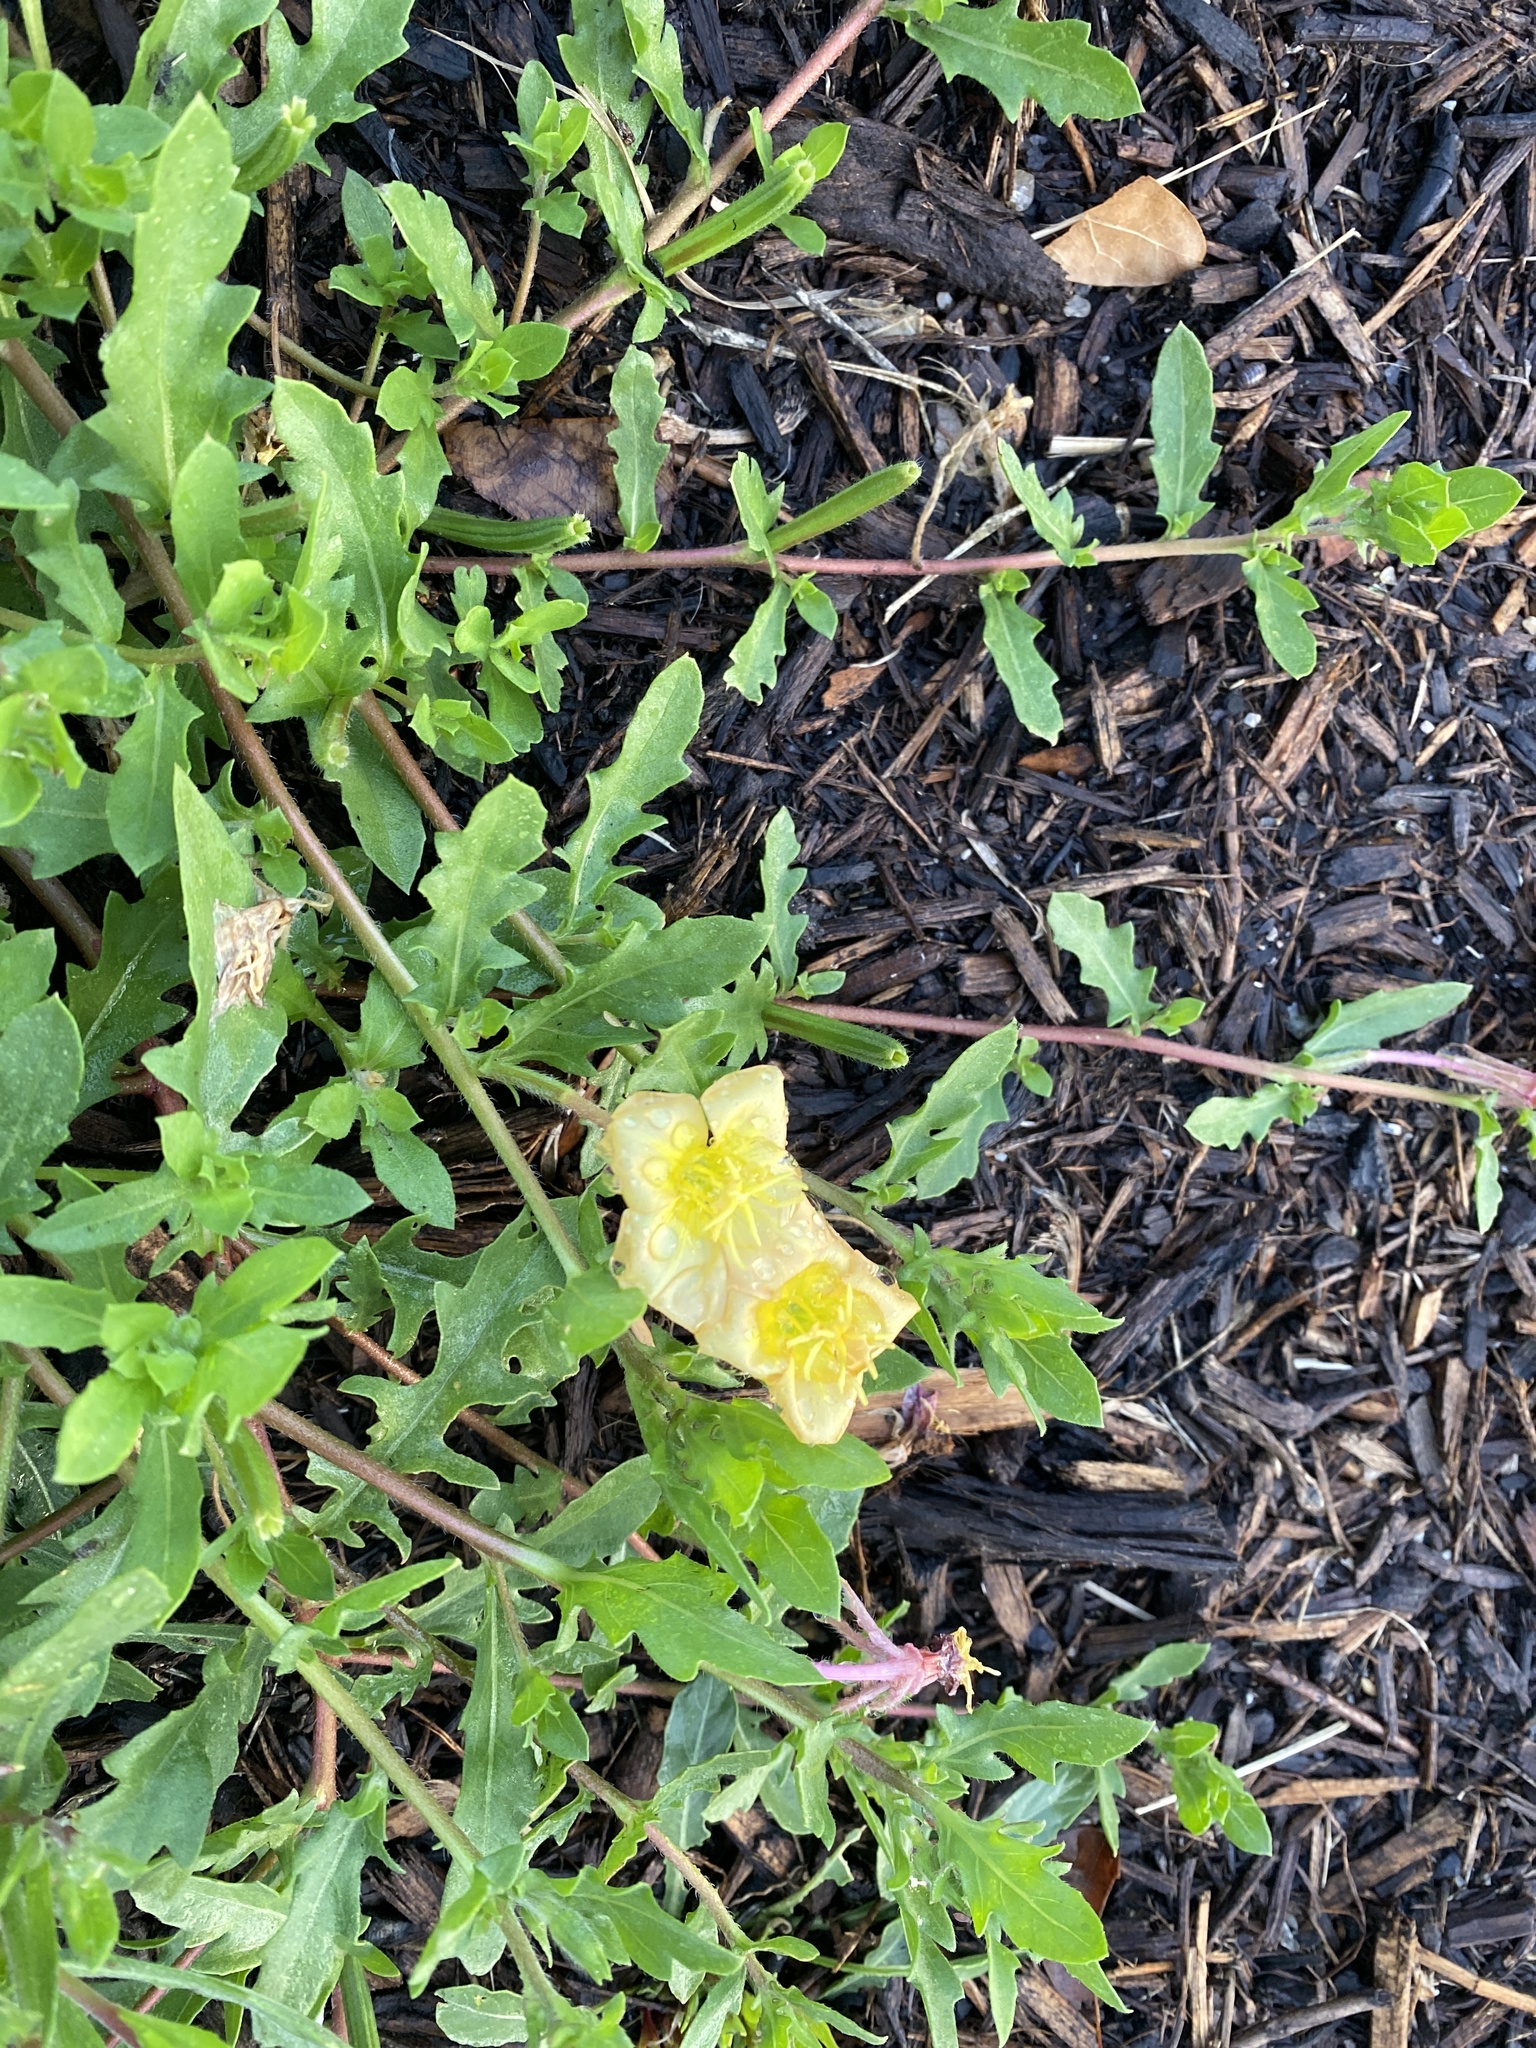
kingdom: Plantae
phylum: Tracheophyta
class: Magnoliopsida
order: Myrtales
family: Onagraceae
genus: Oenothera
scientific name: Oenothera laciniata
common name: Cut-leaved evening-primrose
